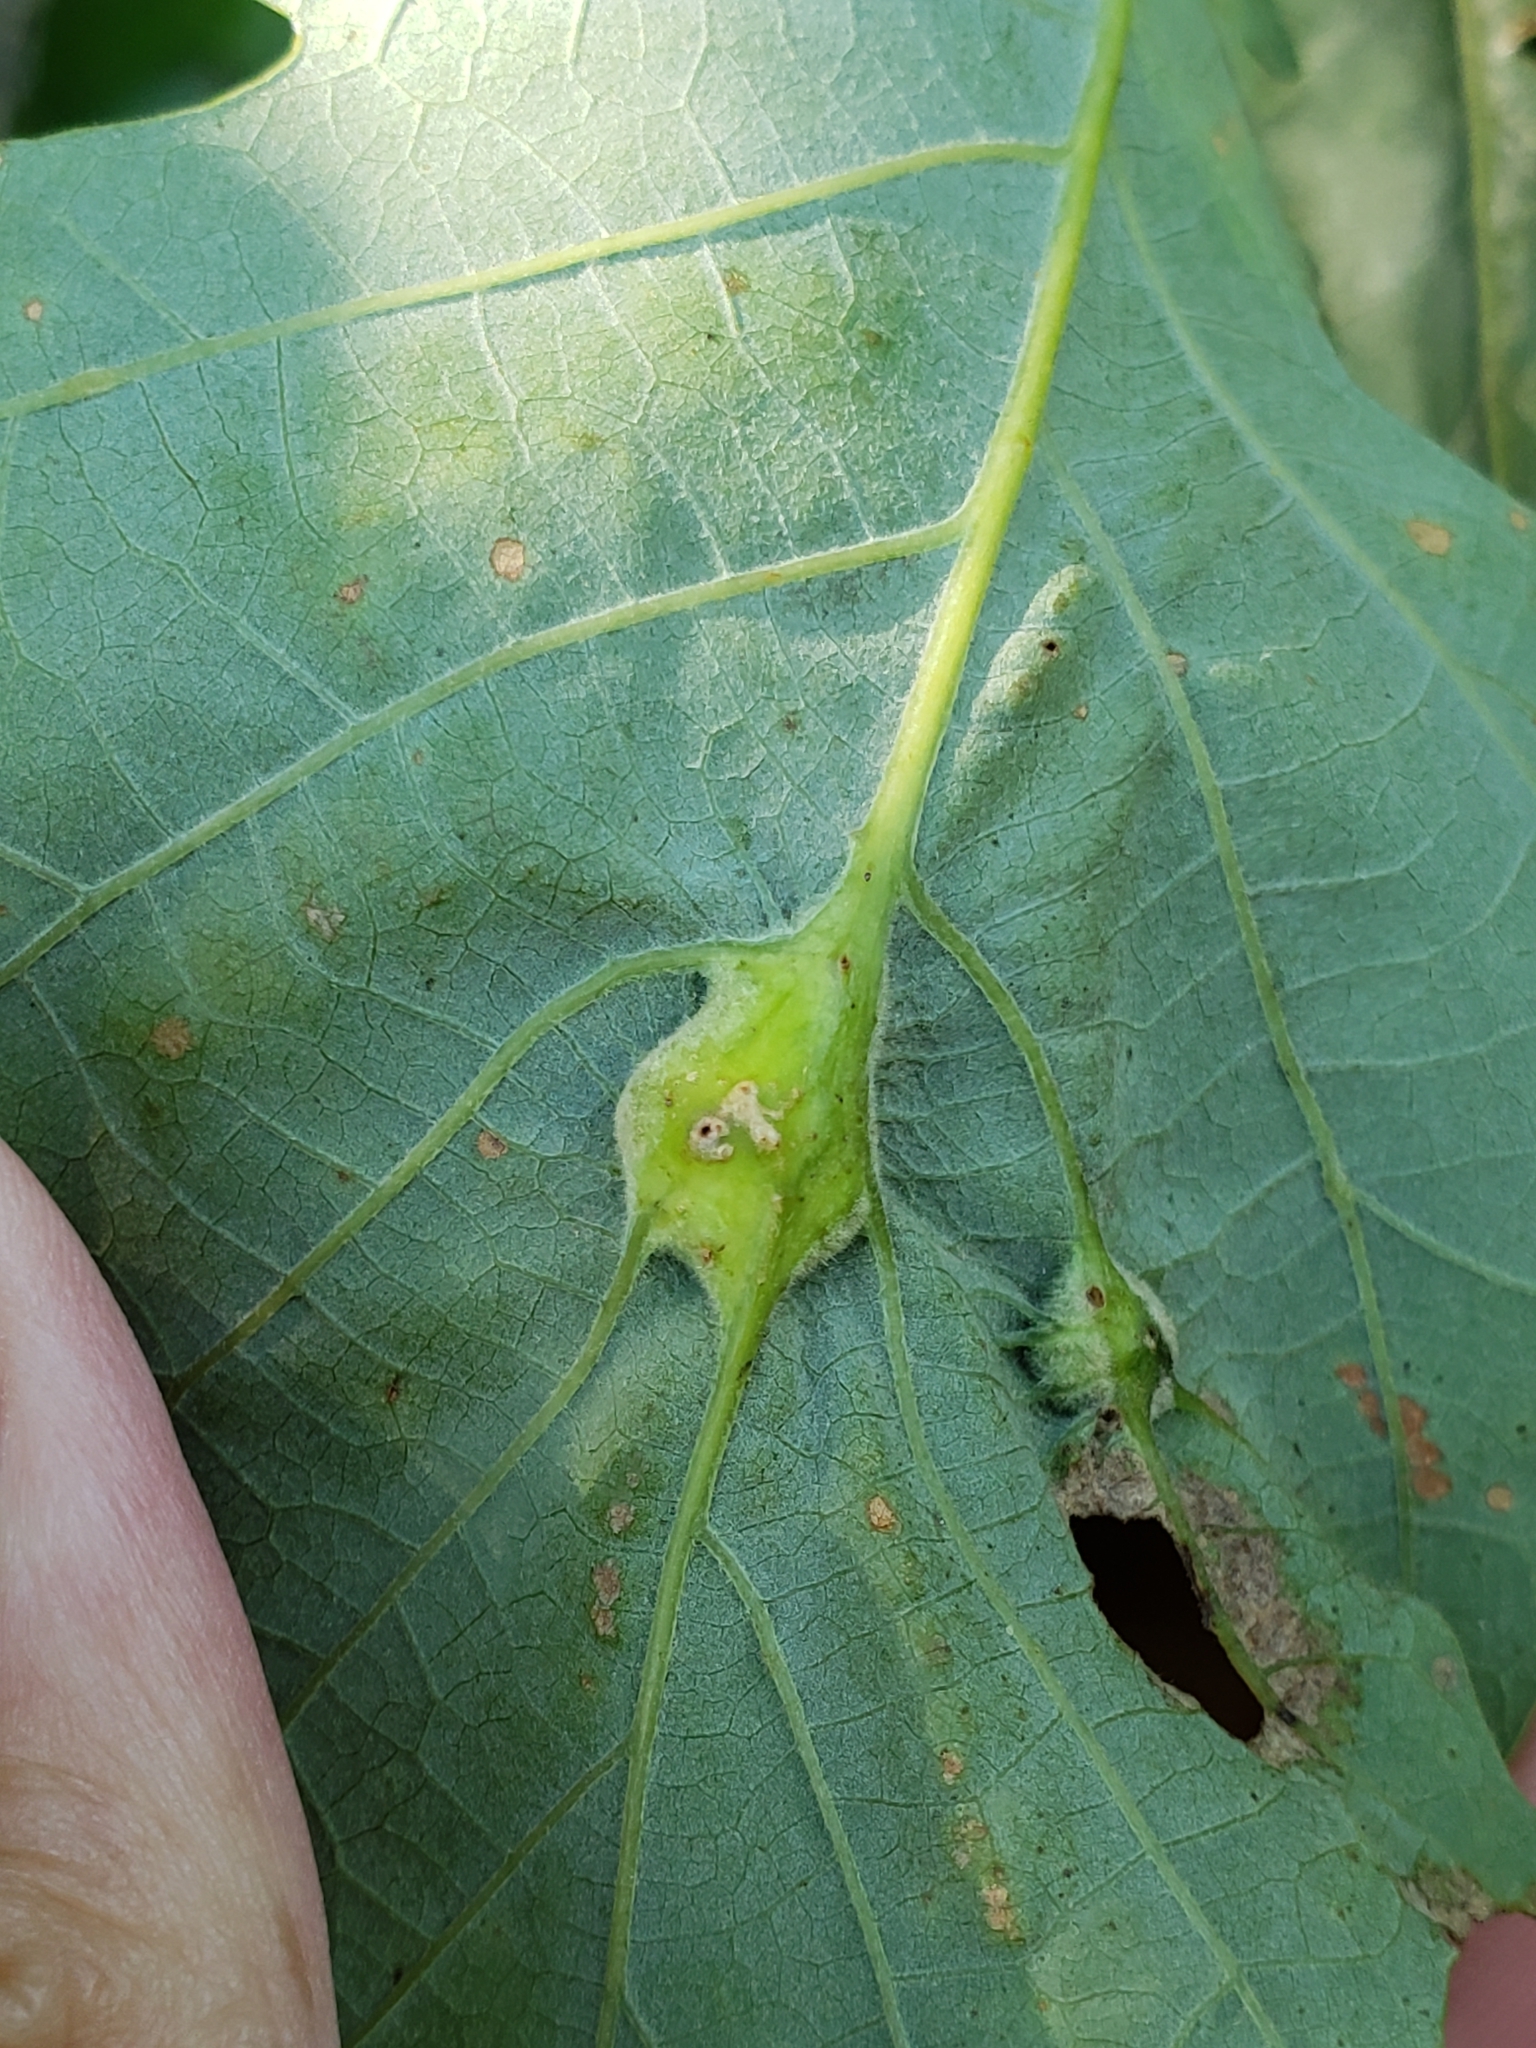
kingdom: Animalia
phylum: Arthropoda
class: Insecta
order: Hymenoptera
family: Cynipidae
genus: Bassettia
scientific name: Bassettia flavipes
